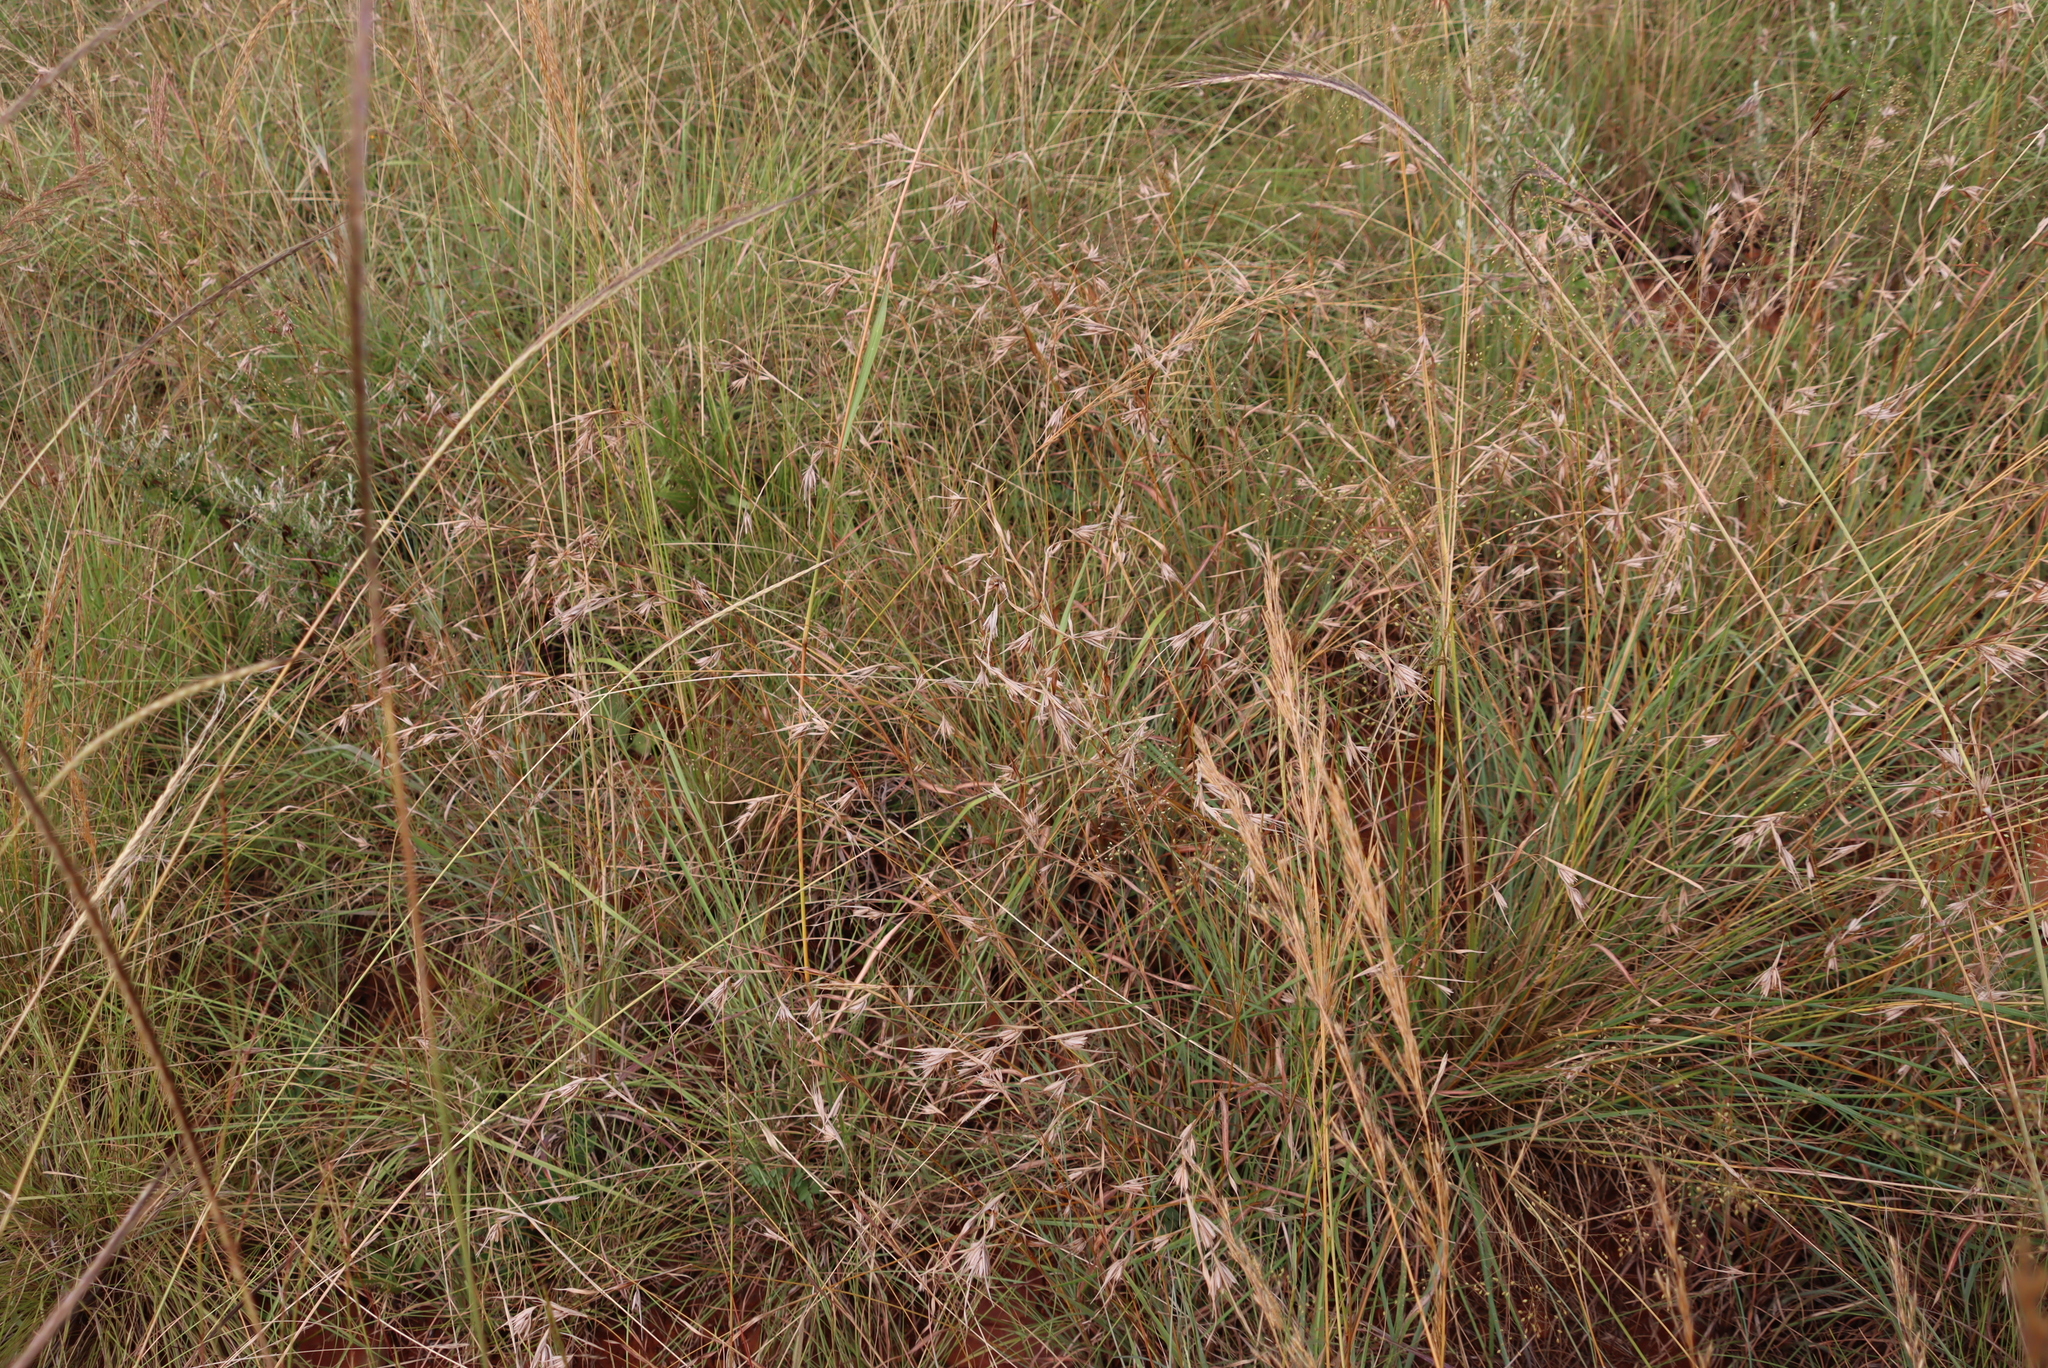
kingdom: Plantae
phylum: Tracheophyta
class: Liliopsida
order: Poales
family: Poaceae
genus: Themeda
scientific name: Themeda triandra
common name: Kangaroo grass
